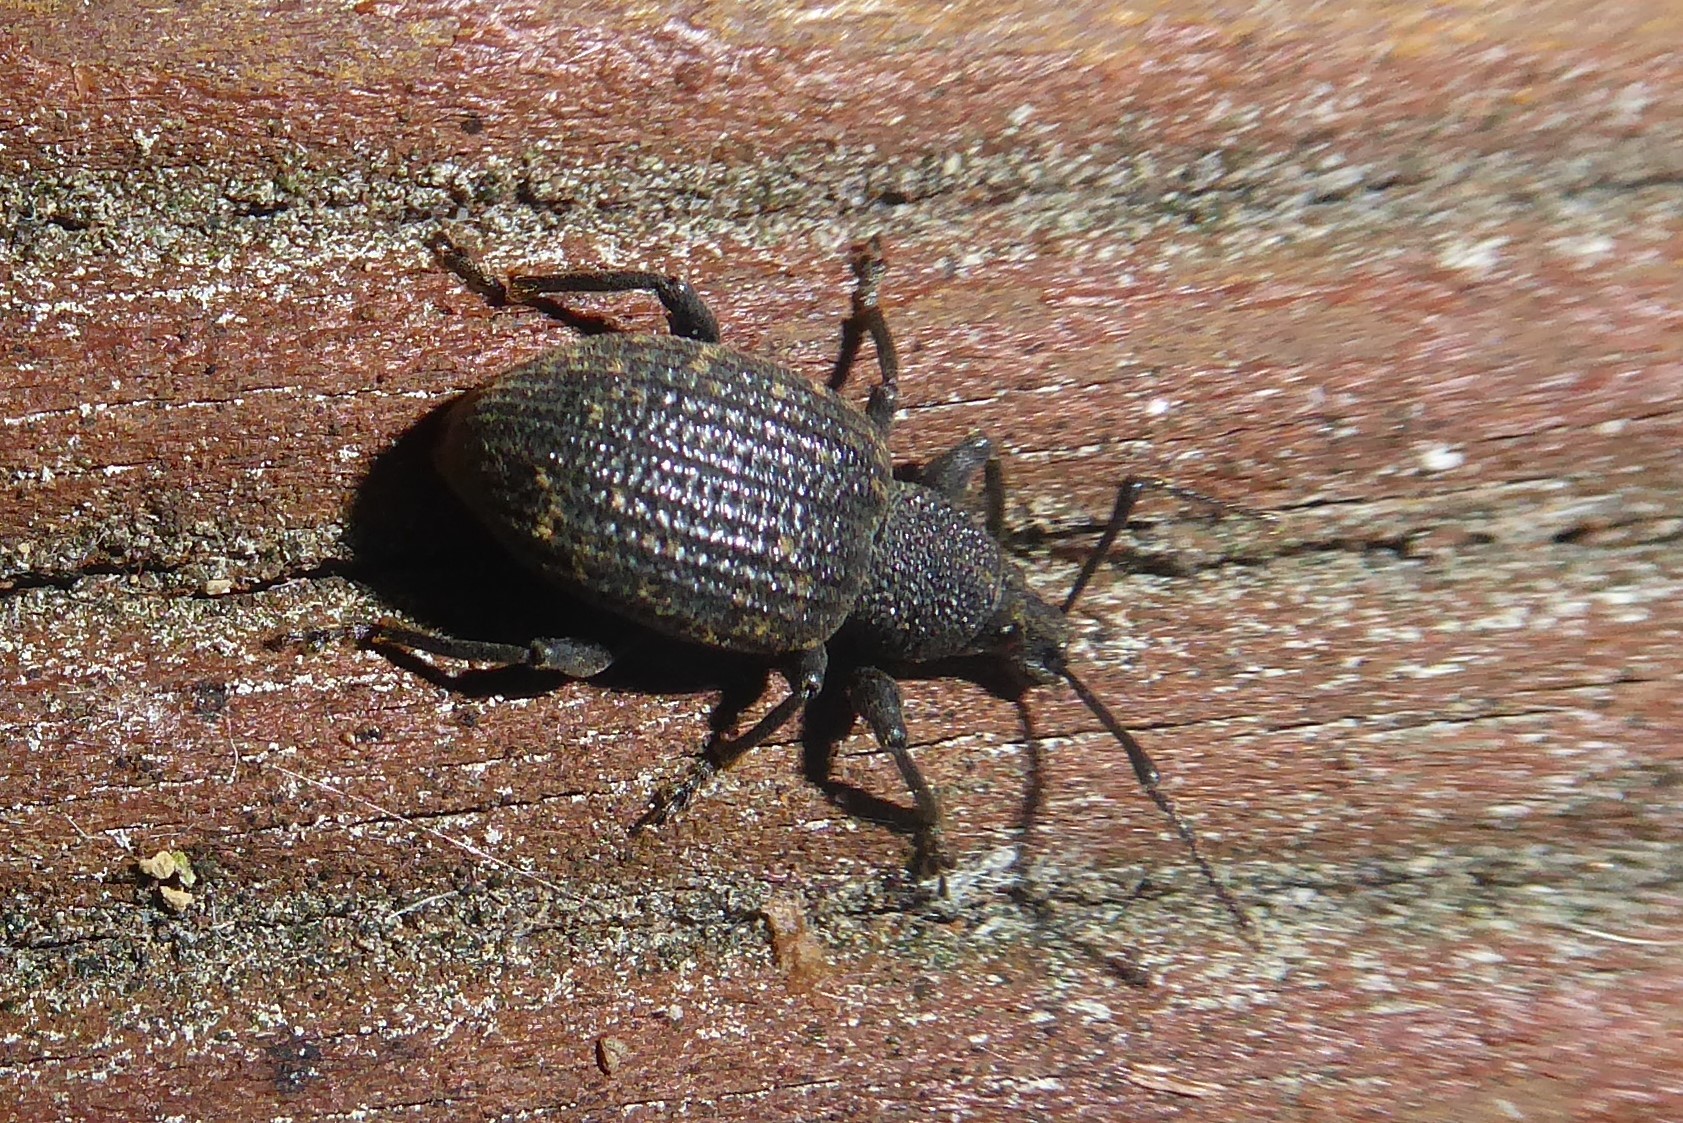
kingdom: Animalia
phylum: Arthropoda
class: Insecta
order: Coleoptera
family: Curculionidae
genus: Otiorhynchus
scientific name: Otiorhynchus sulcatus
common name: Black vine weevil
